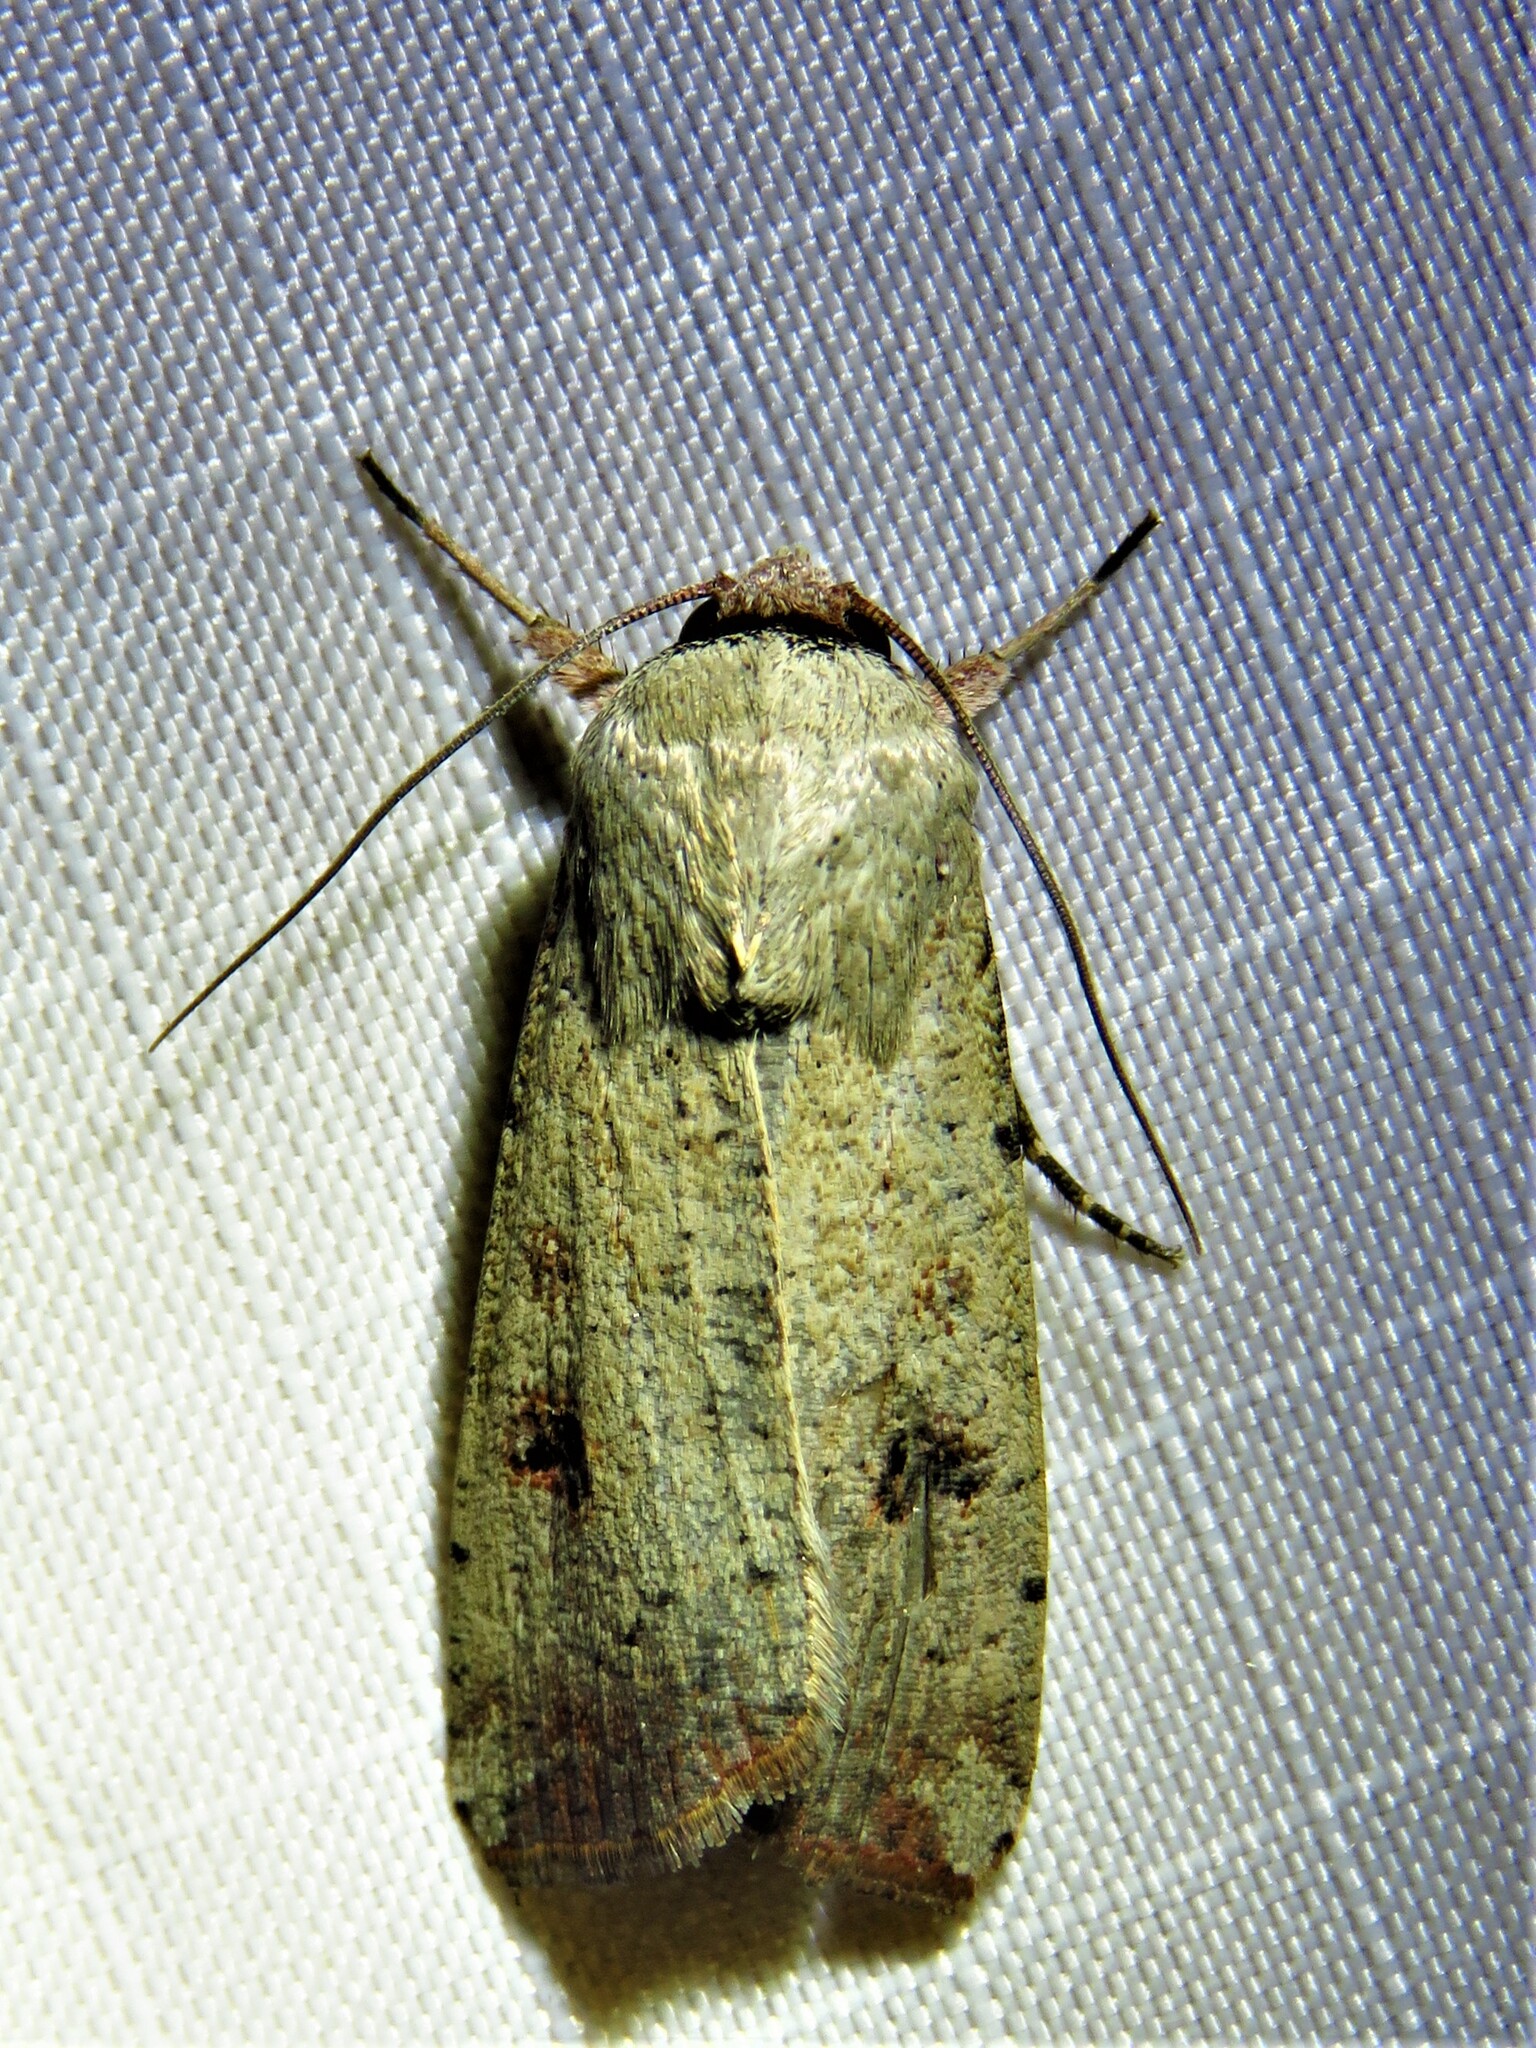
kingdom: Animalia
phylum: Arthropoda
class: Insecta
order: Lepidoptera
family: Noctuidae
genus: Anicla
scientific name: Anicla infecta
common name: Green cutworm
